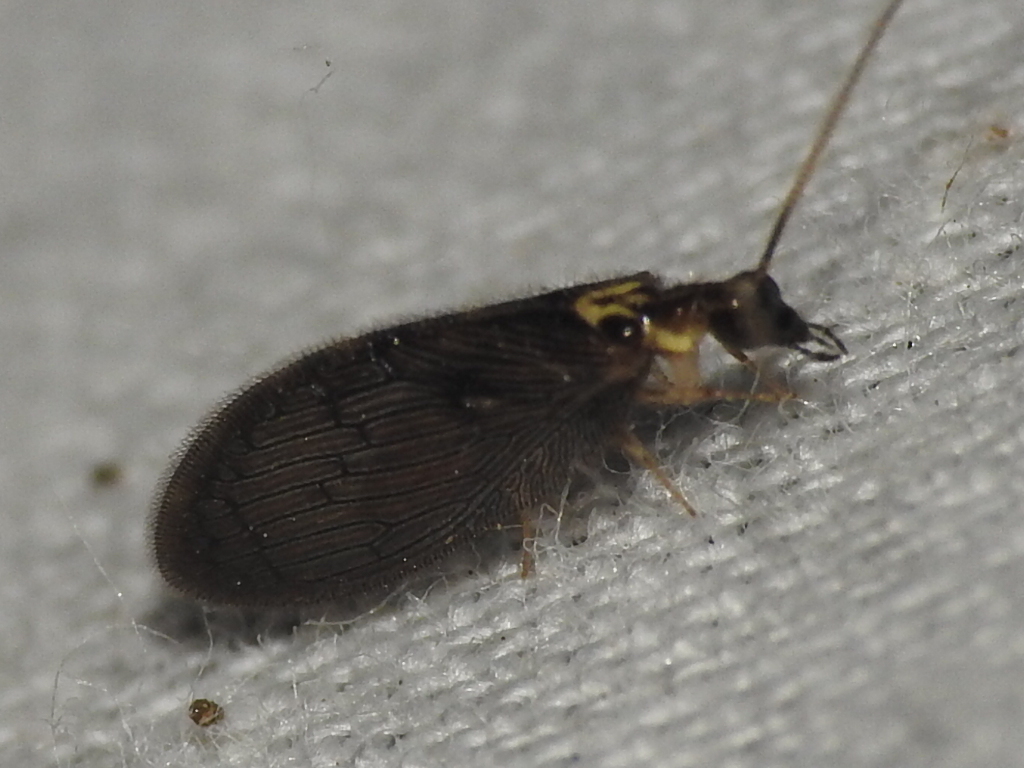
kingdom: Animalia
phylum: Arthropoda
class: Insecta
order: Neuroptera
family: Hemerobiidae
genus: Sympherobius
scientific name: Sympherobius occidentalis
